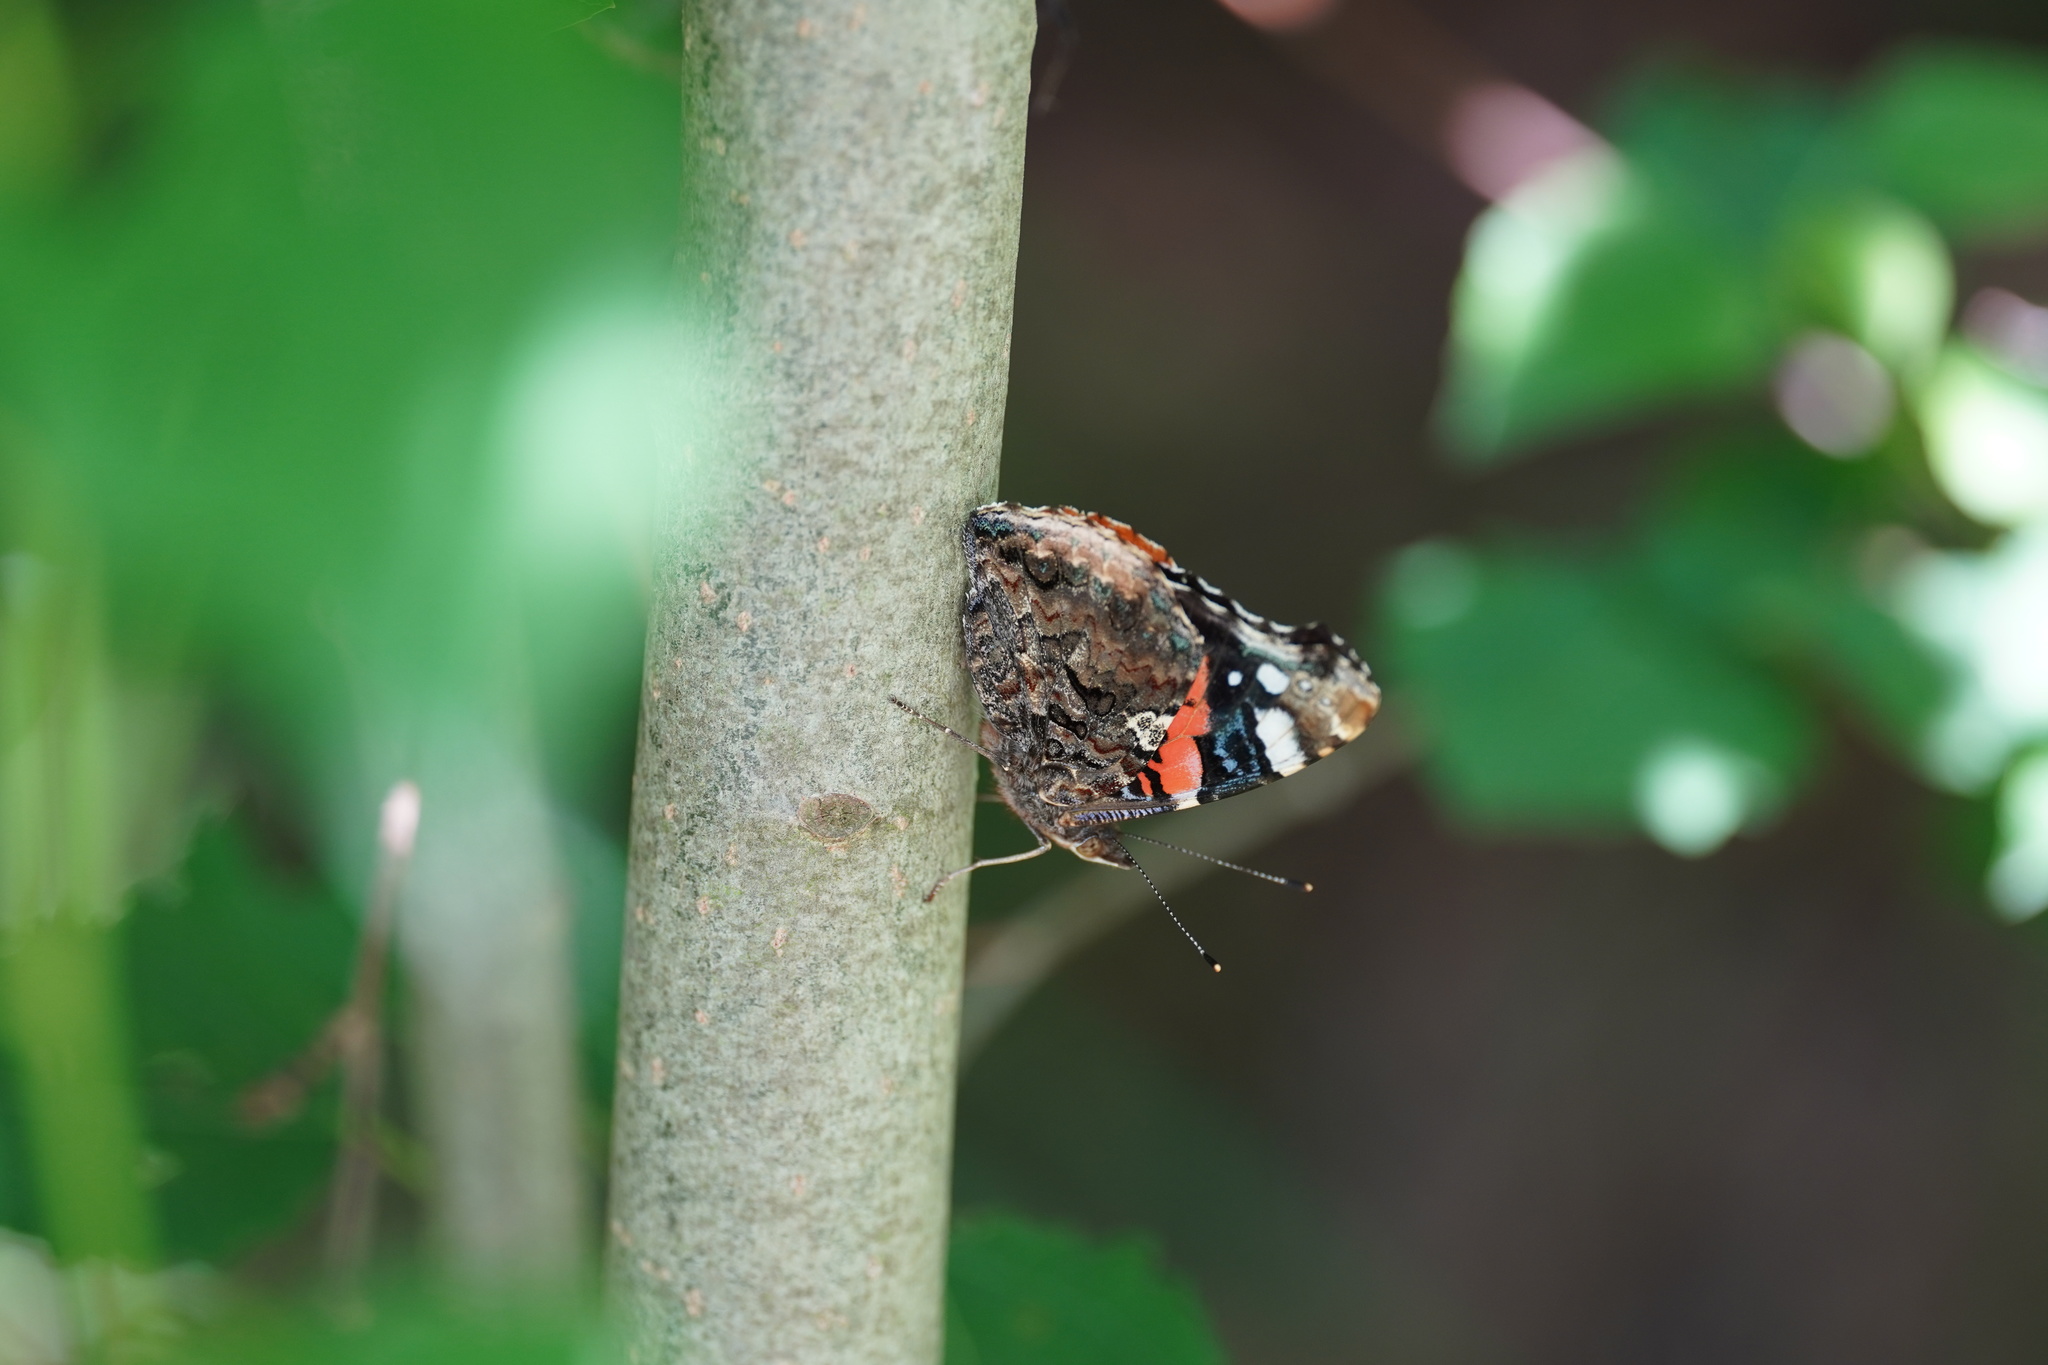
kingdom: Animalia
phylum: Arthropoda
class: Insecta
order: Lepidoptera
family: Nymphalidae
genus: Vanessa
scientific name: Vanessa atalanta
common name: Red admiral
